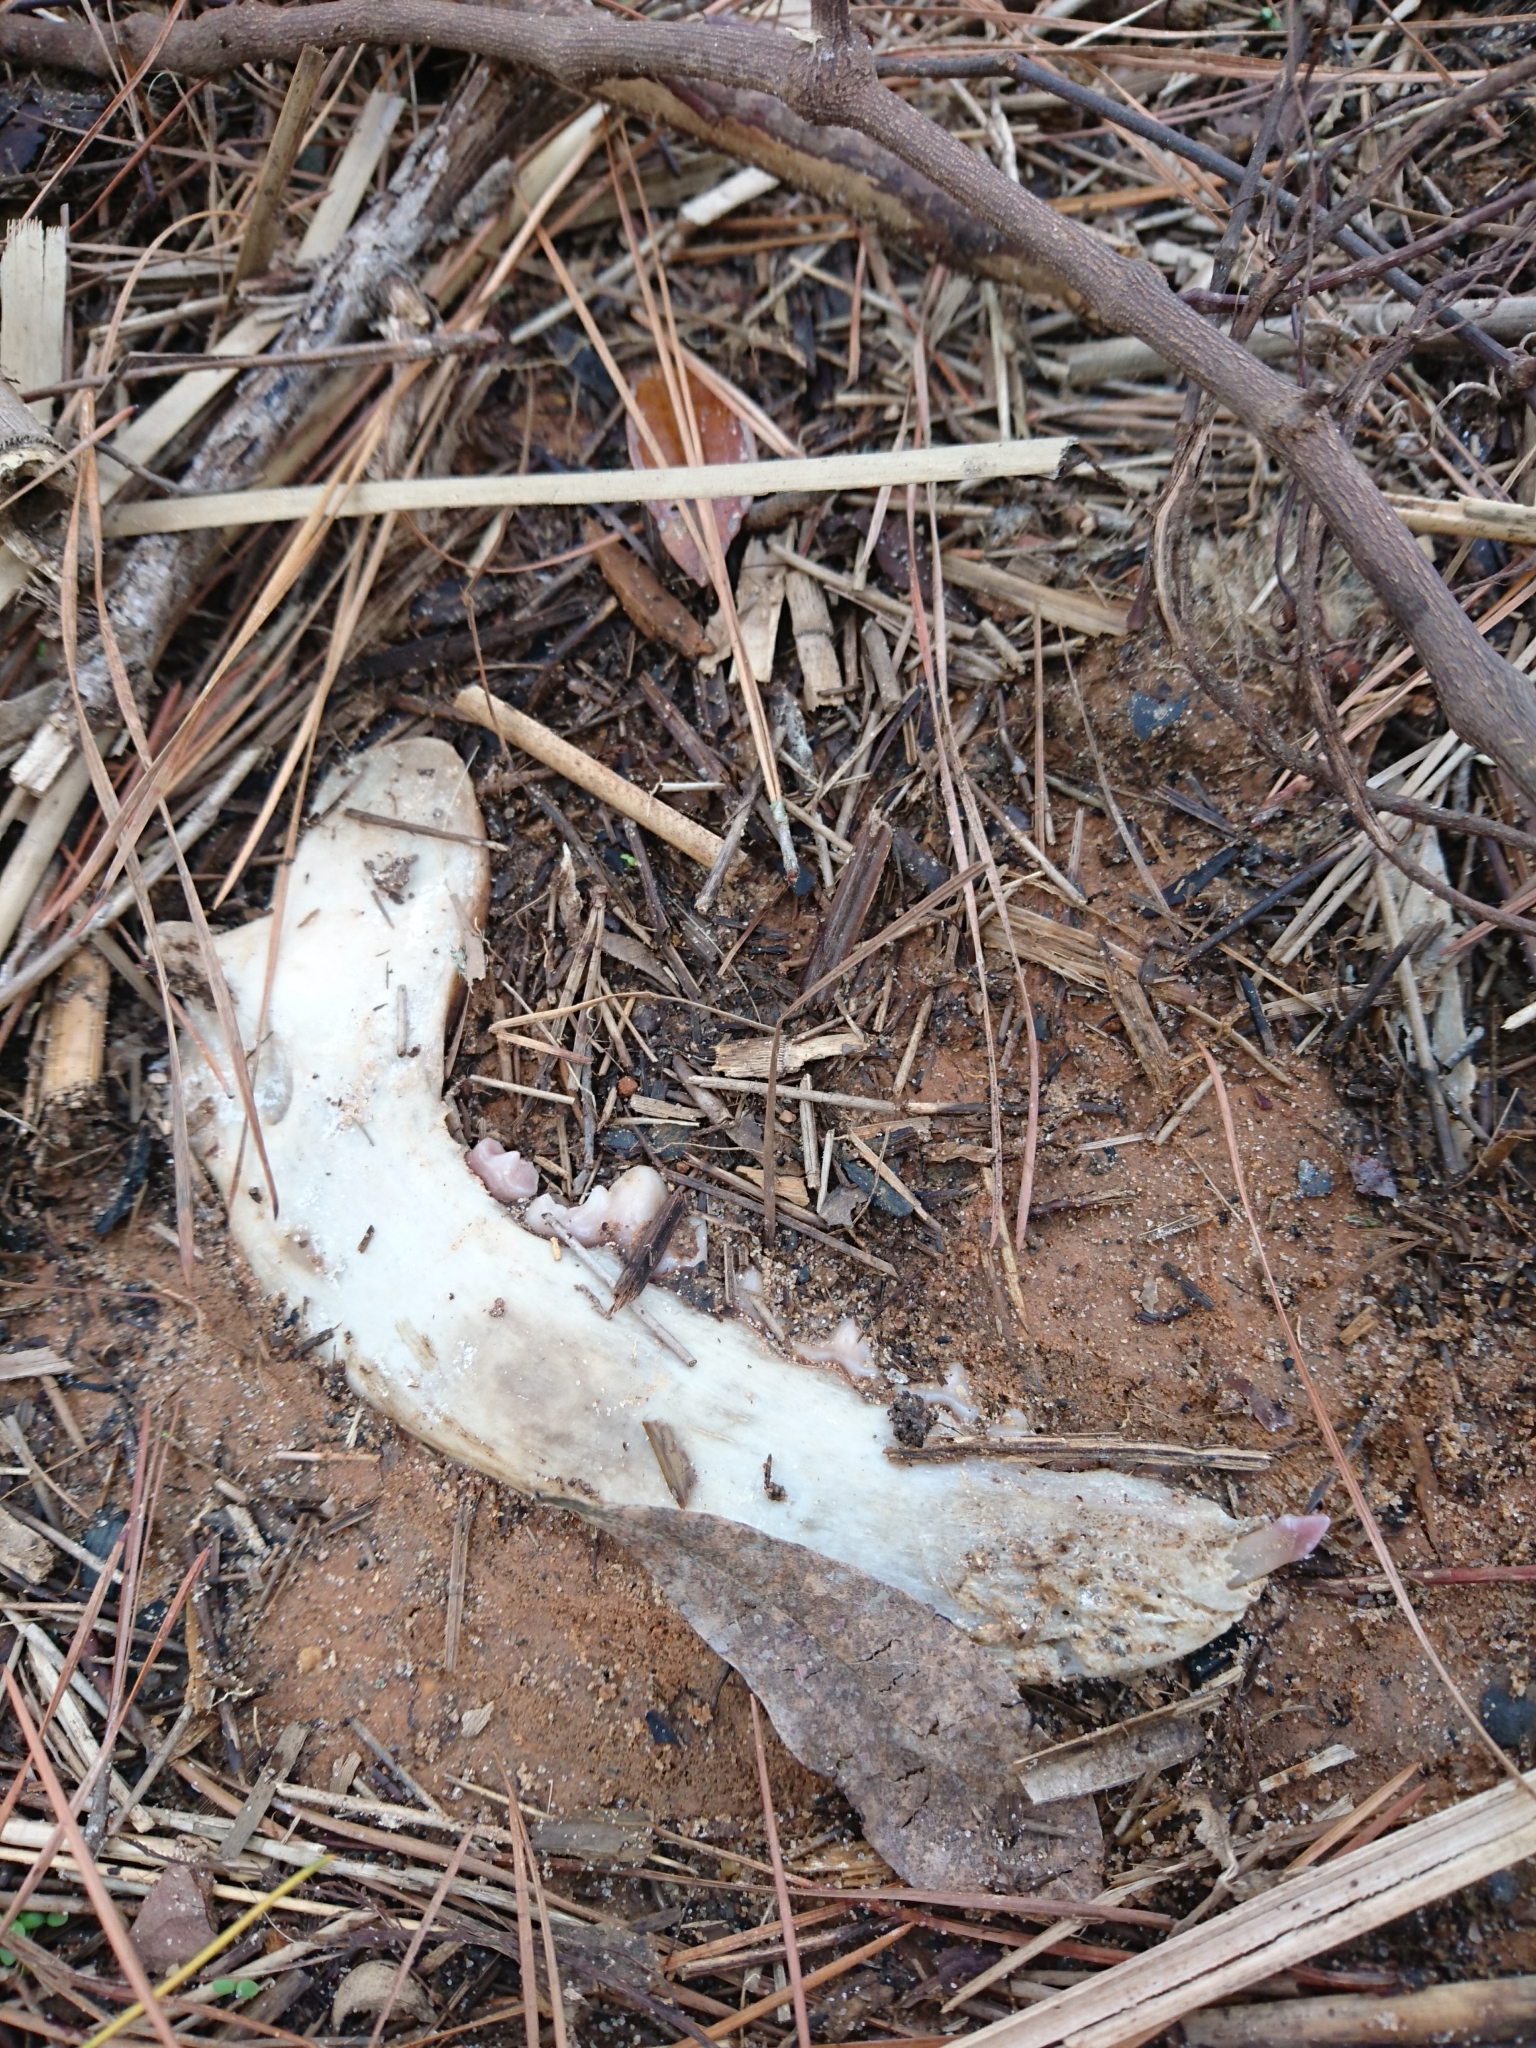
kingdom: Animalia
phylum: Chordata
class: Mammalia
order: Carnivora
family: Canidae
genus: Canis
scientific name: Canis lupus
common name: Gray wolf
